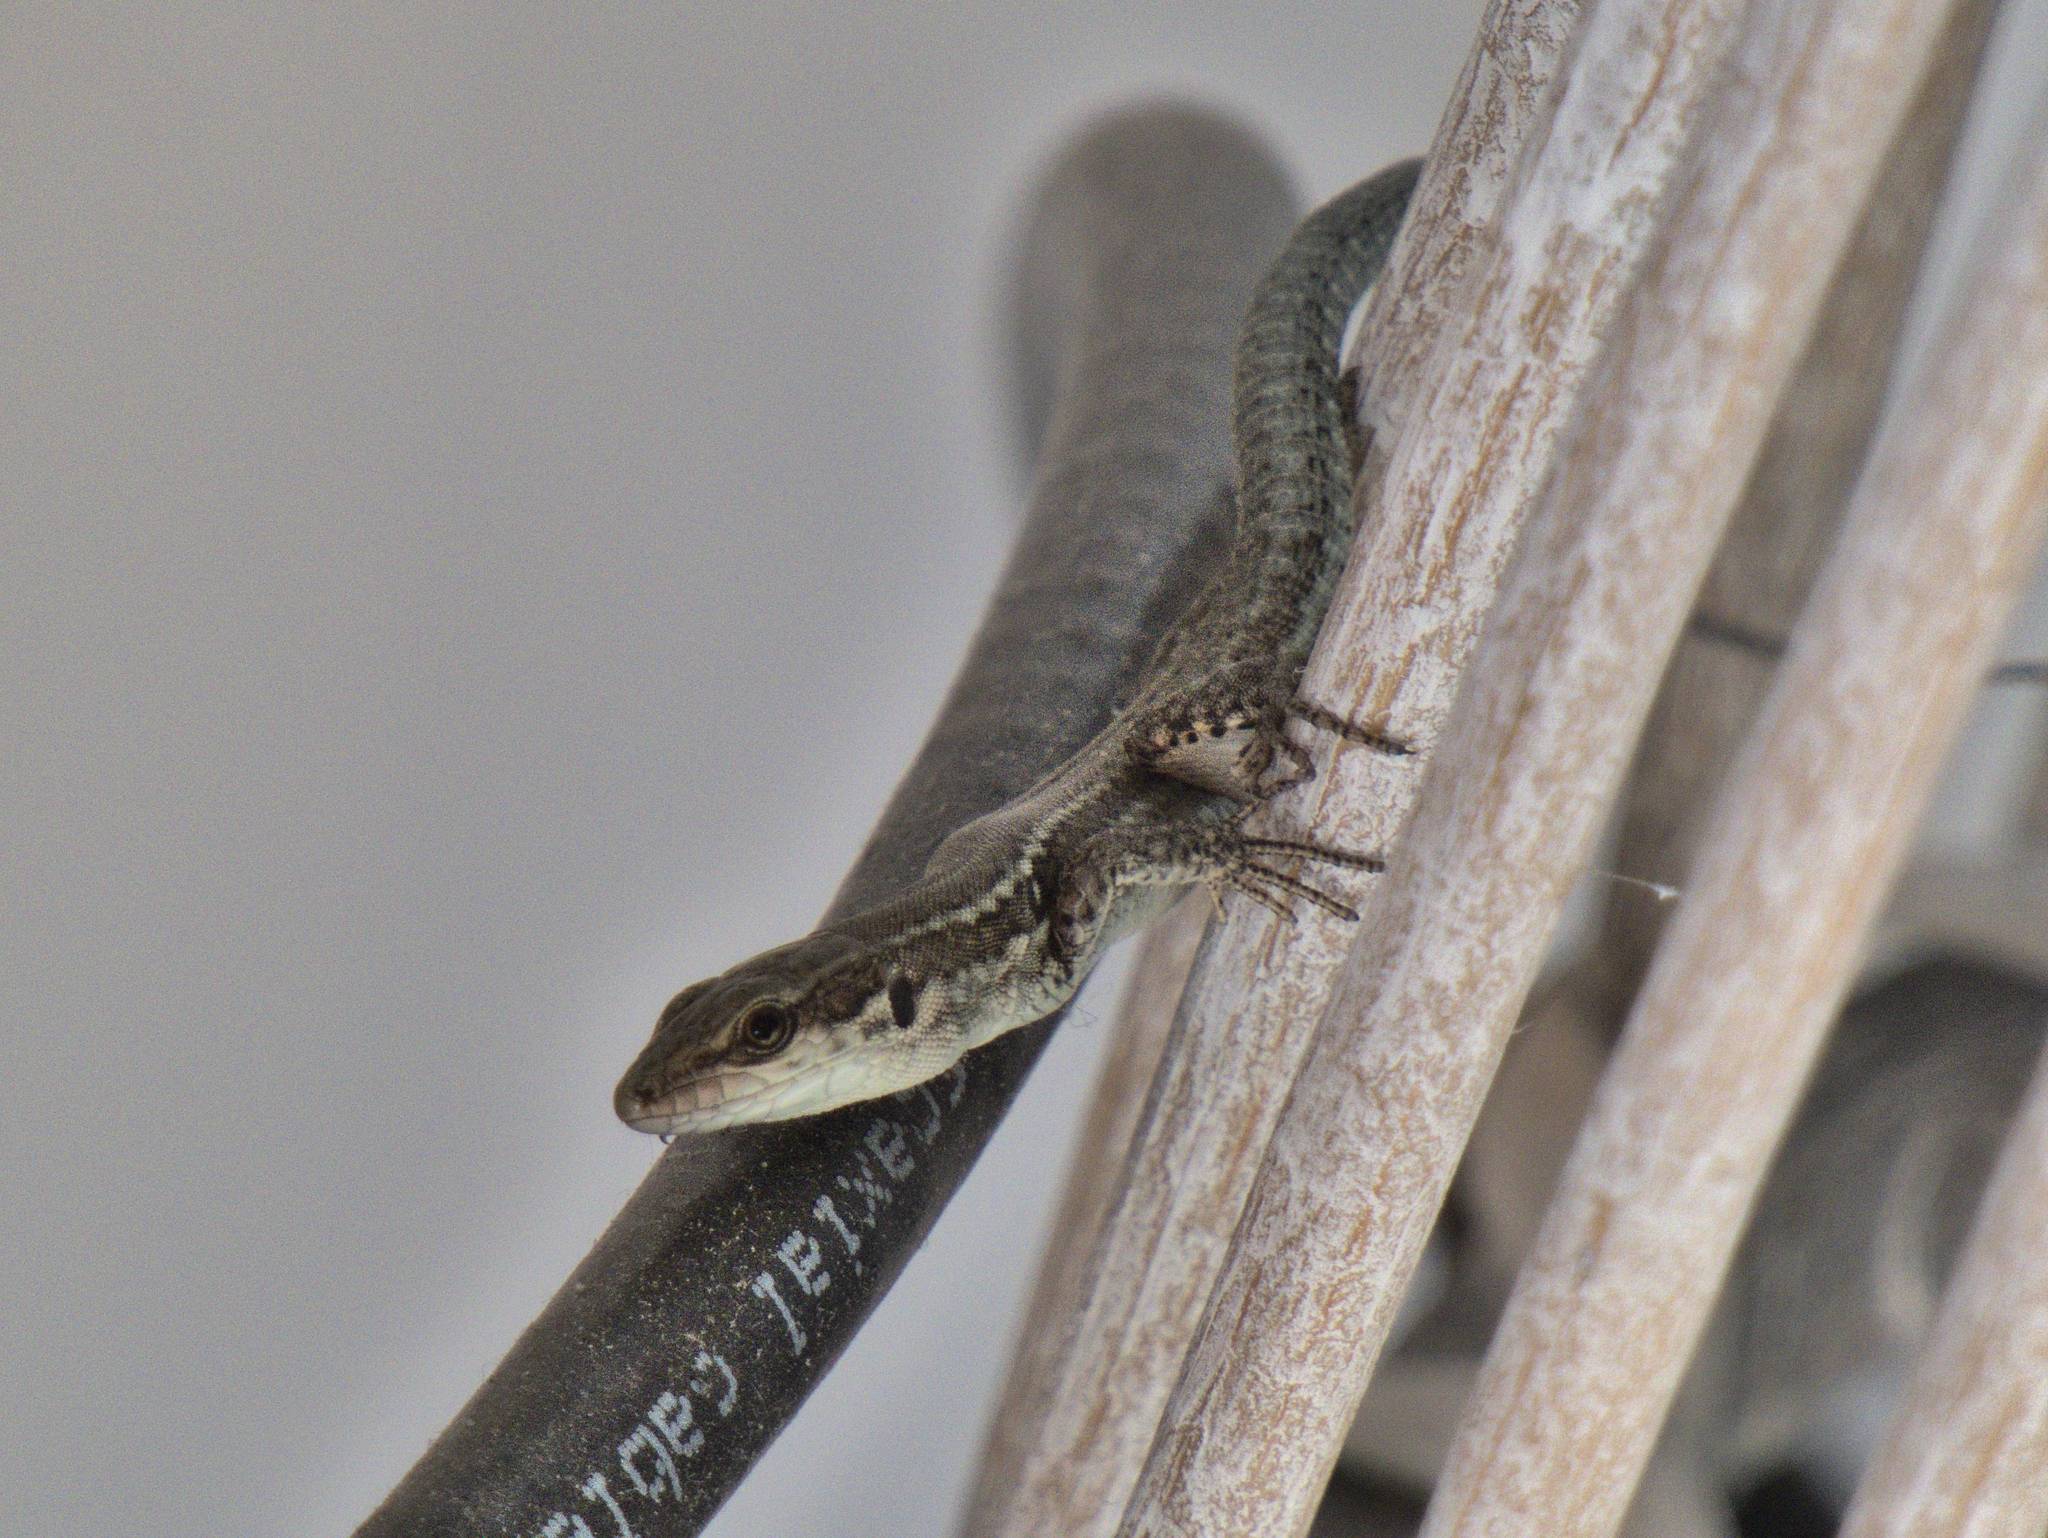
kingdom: Animalia
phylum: Chordata
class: Squamata
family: Lacertidae
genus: Podarcis
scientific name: Podarcis muralis
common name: Common wall lizard
